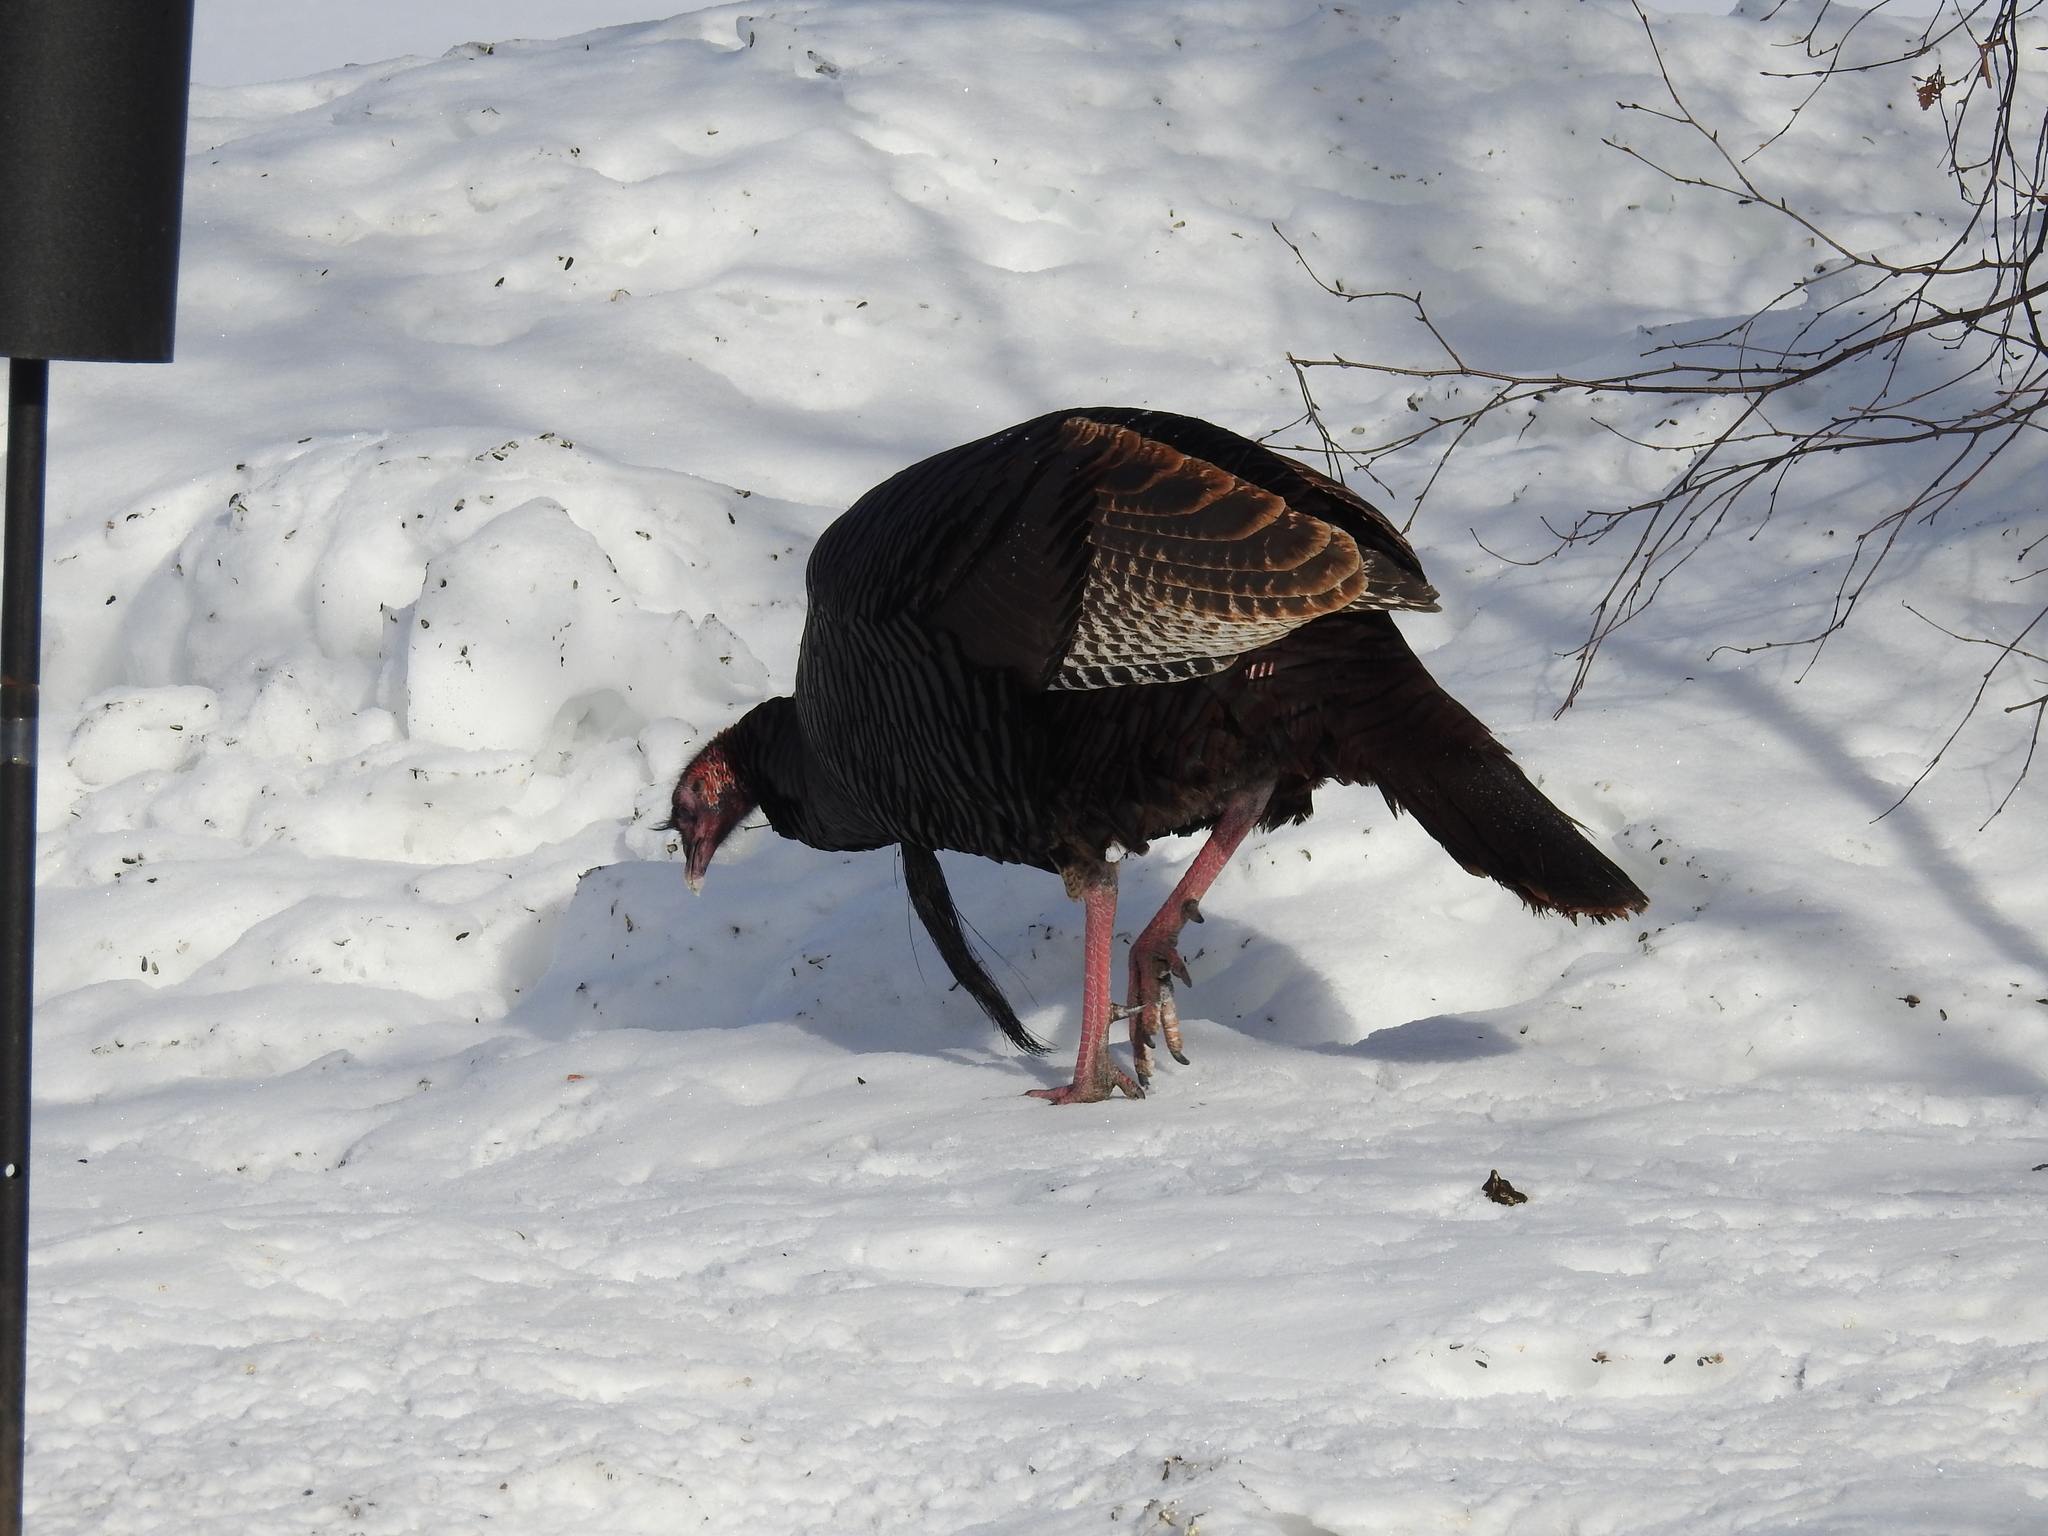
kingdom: Animalia
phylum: Chordata
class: Aves
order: Galliformes
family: Phasianidae
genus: Meleagris
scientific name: Meleagris gallopavo
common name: Wild turkey
